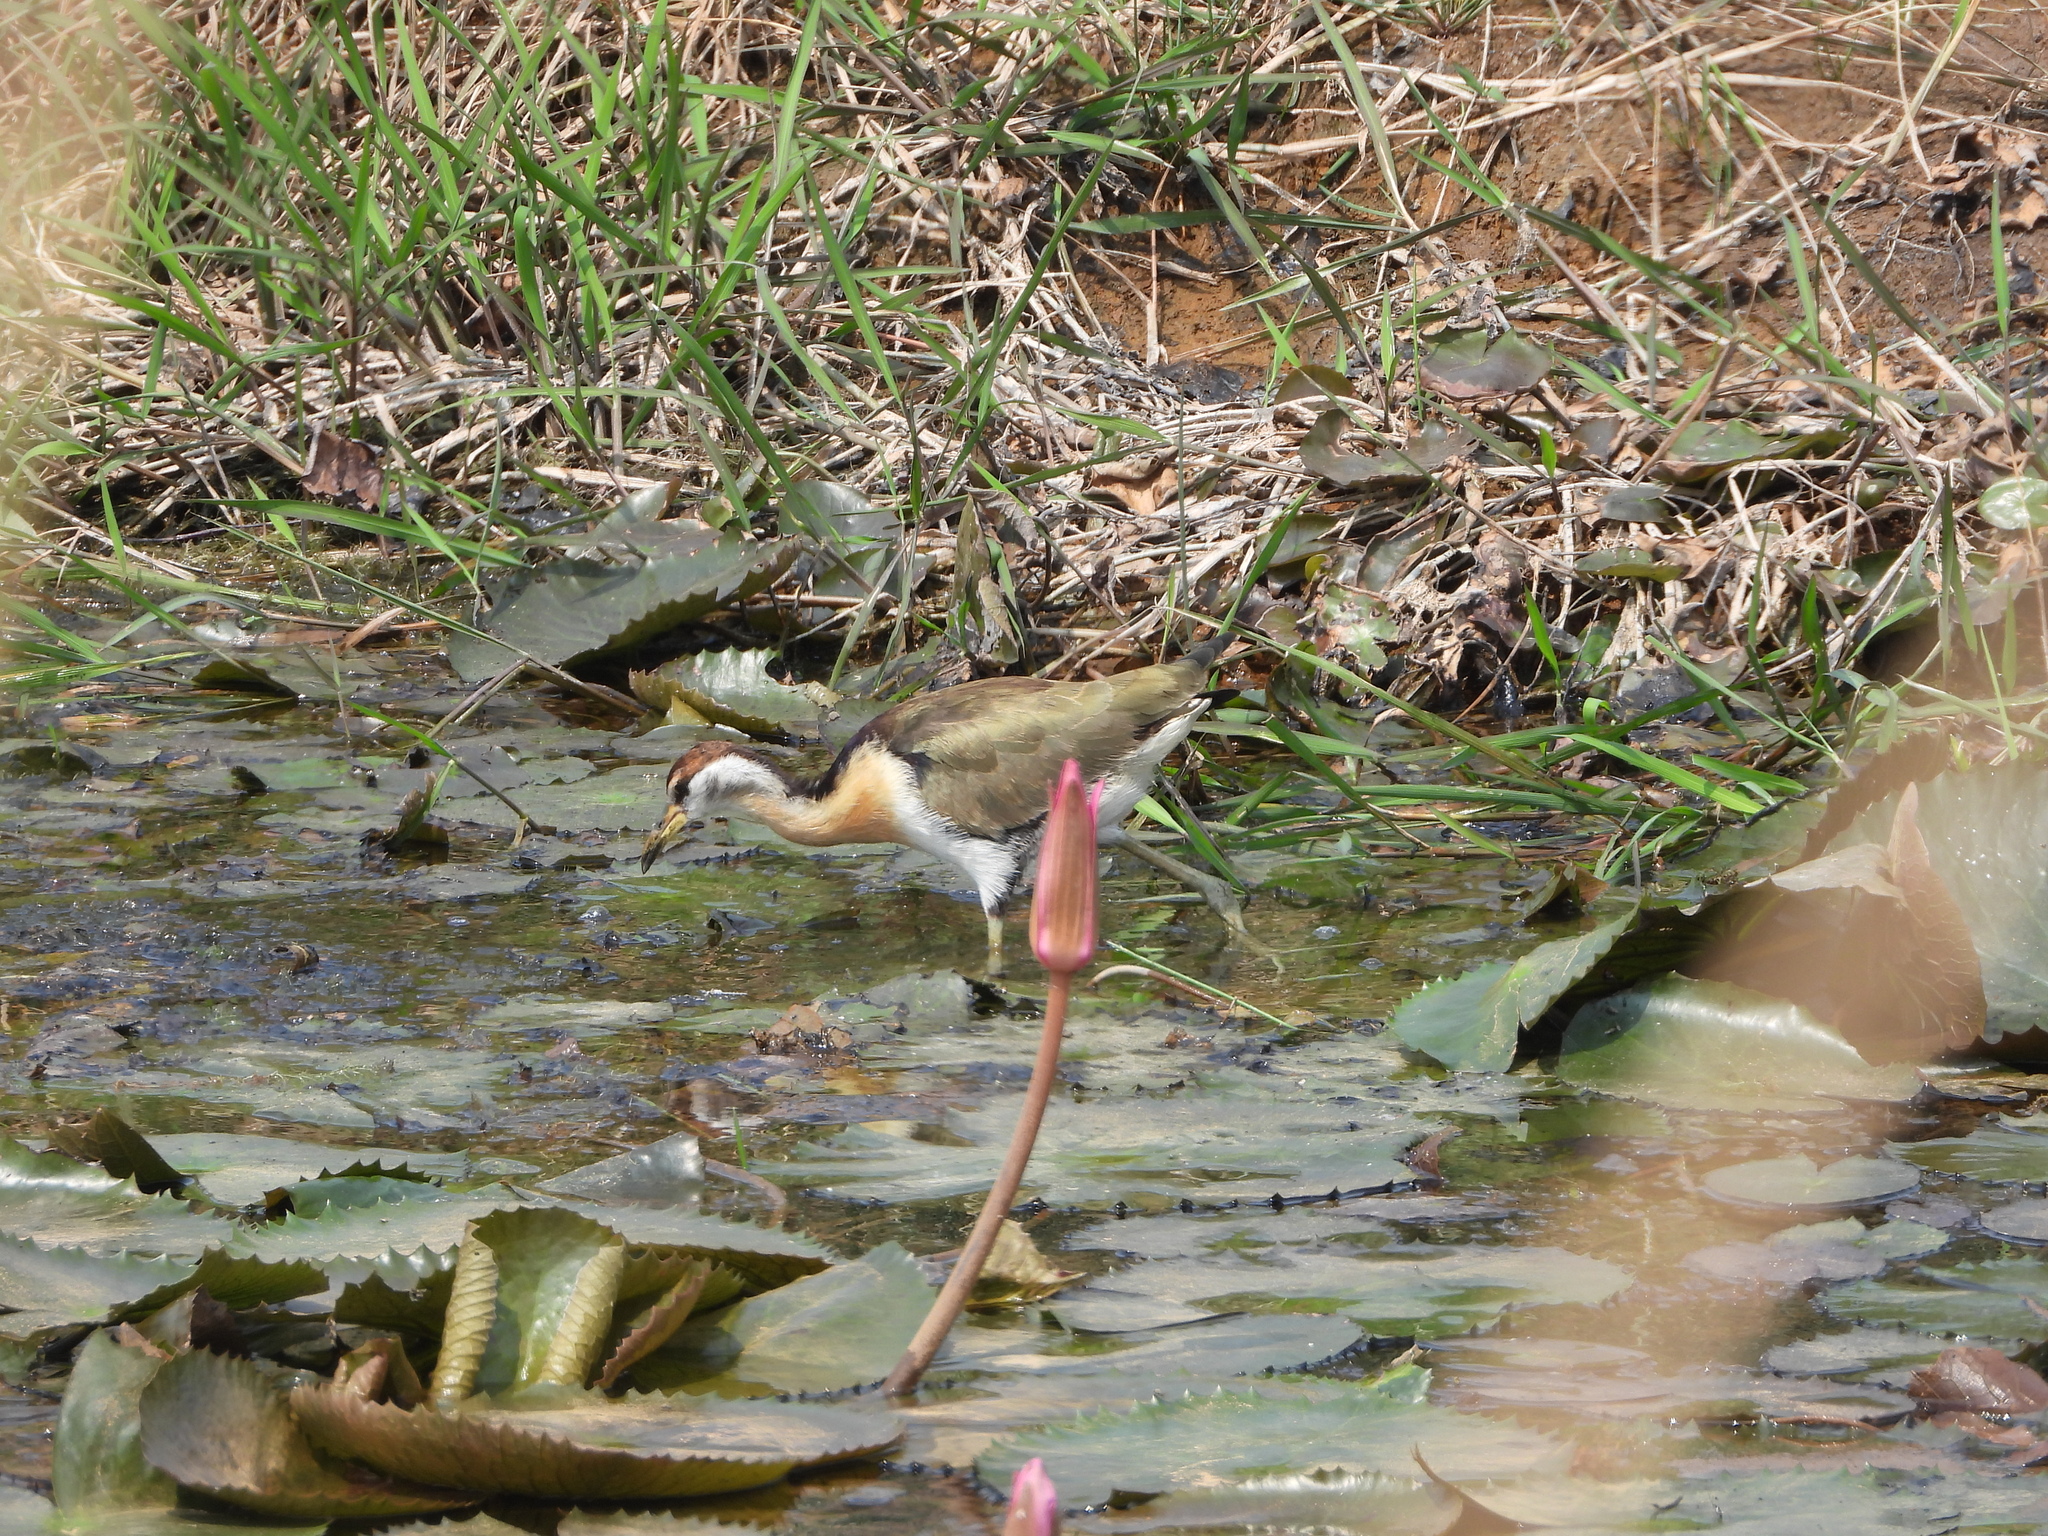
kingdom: Animalia
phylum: Chordata
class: Aves
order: Charadriiformes
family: Jacanidae
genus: Metopidius
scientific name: Metopidius indicus
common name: Bronze-winged jacana
